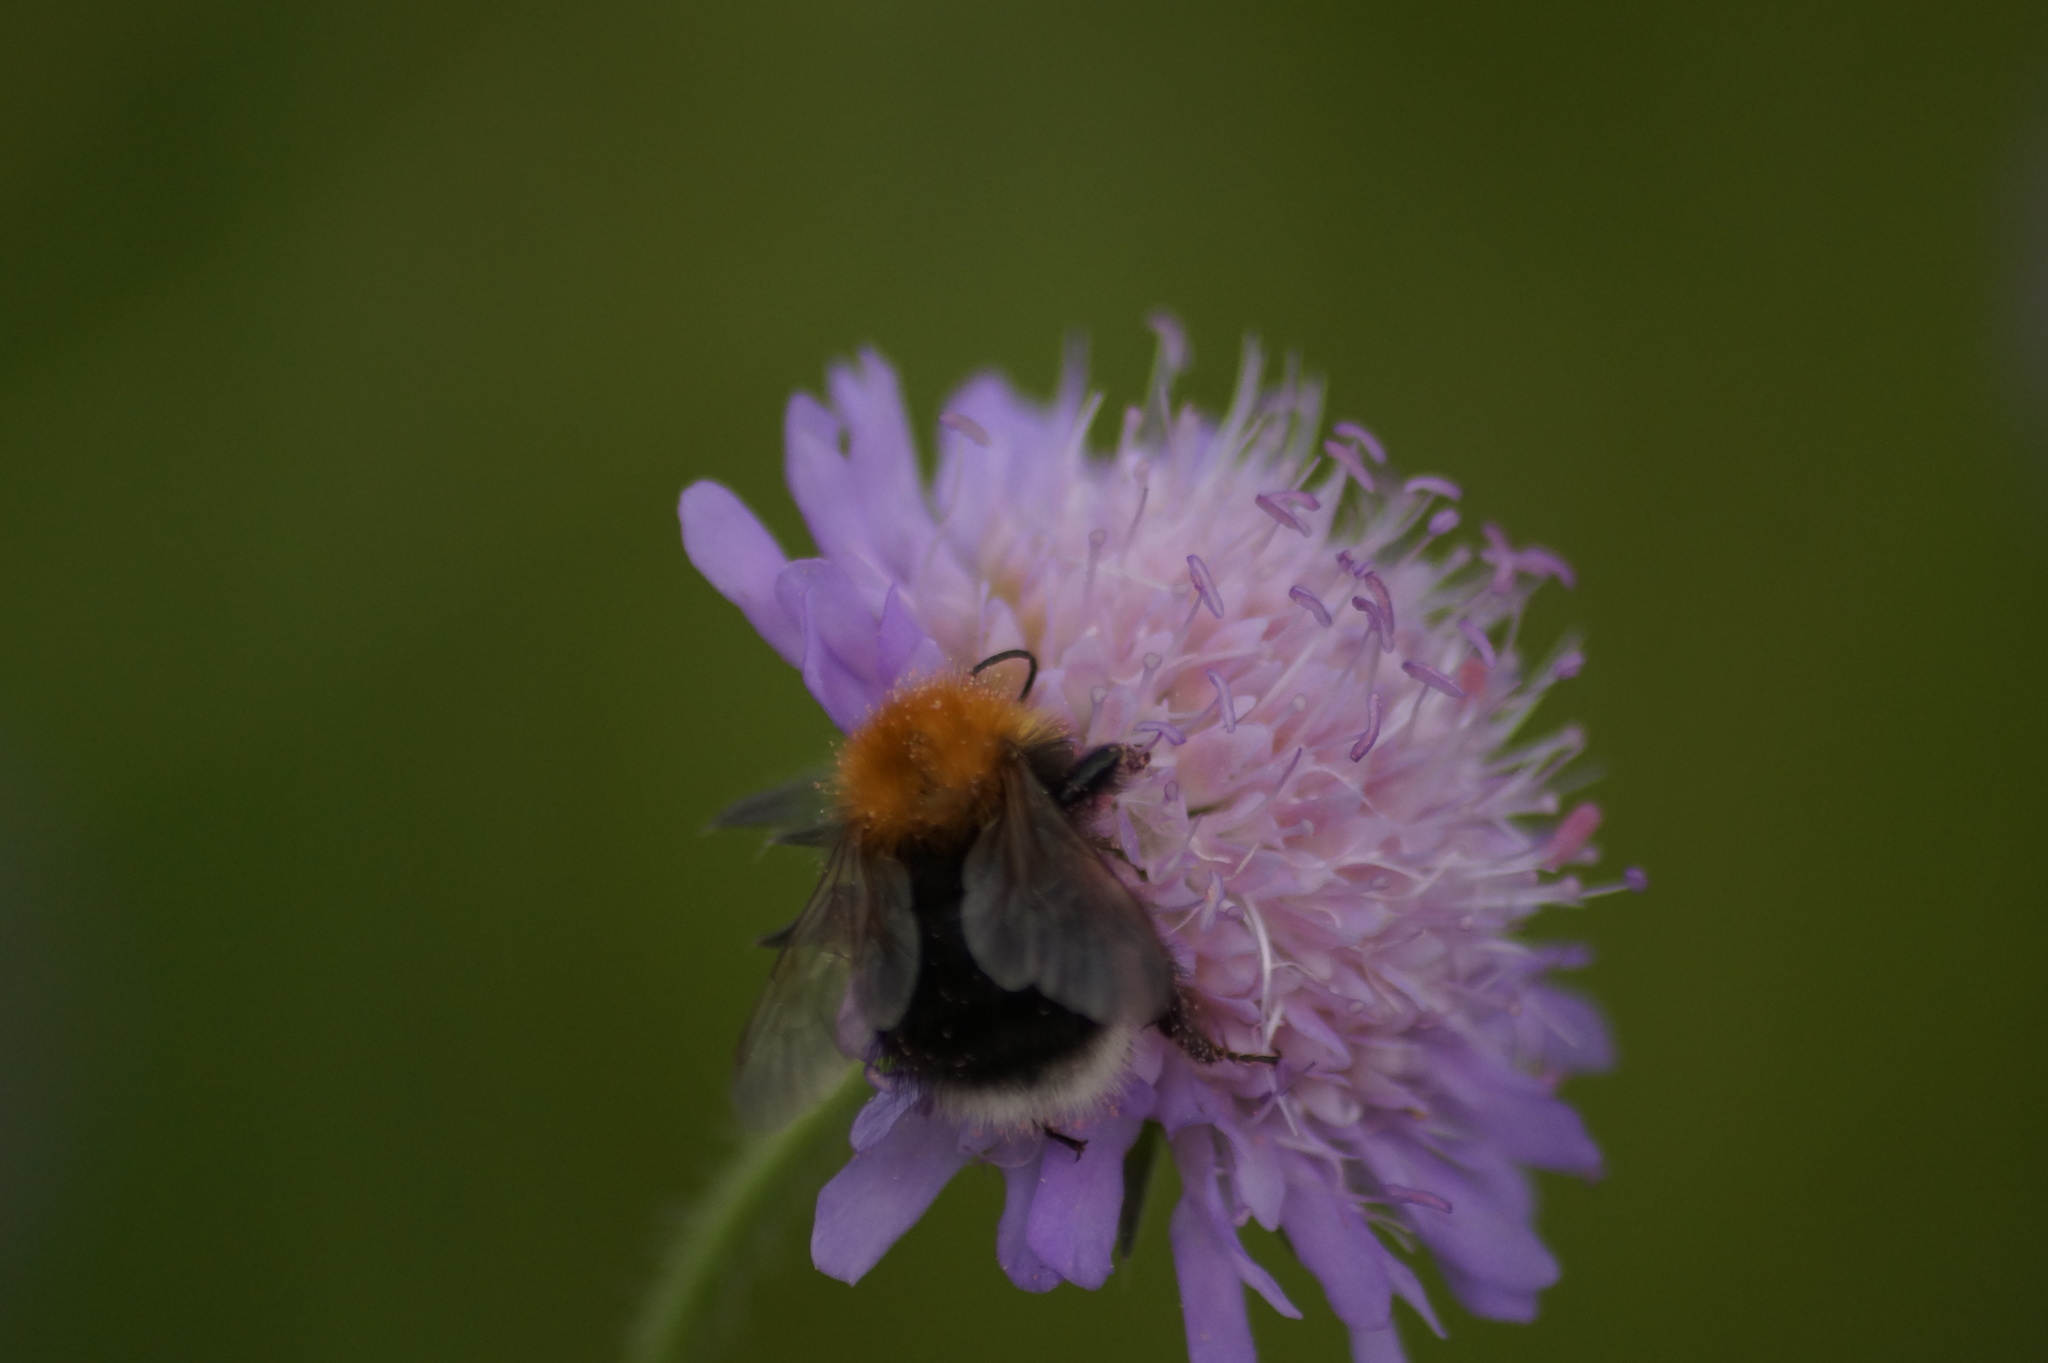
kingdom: Animalia
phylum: Arthropoda
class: Insecta
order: Hymenoptera
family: Apidae
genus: Bombus
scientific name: Bombus hypnorum
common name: New garden bumblebee
